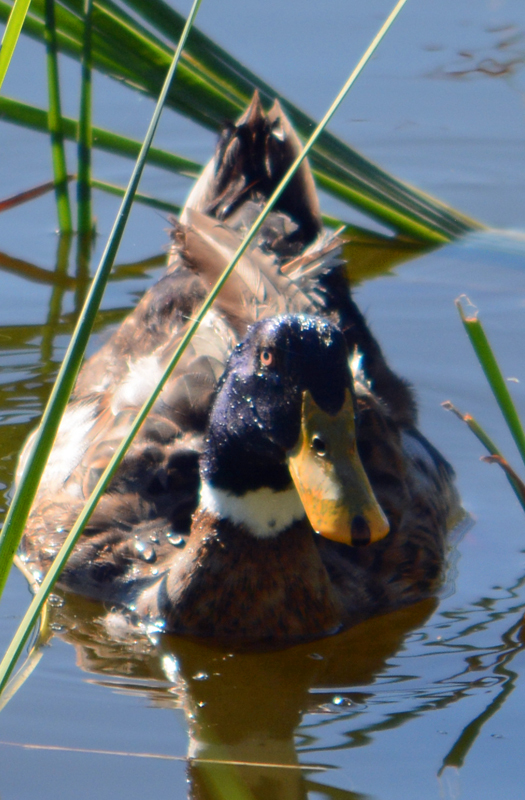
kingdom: Animalia
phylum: Chordata
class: Aves
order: Anseriformes
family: Anatidae
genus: Anas
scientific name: Anas platyrhynchos
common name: Mallard
